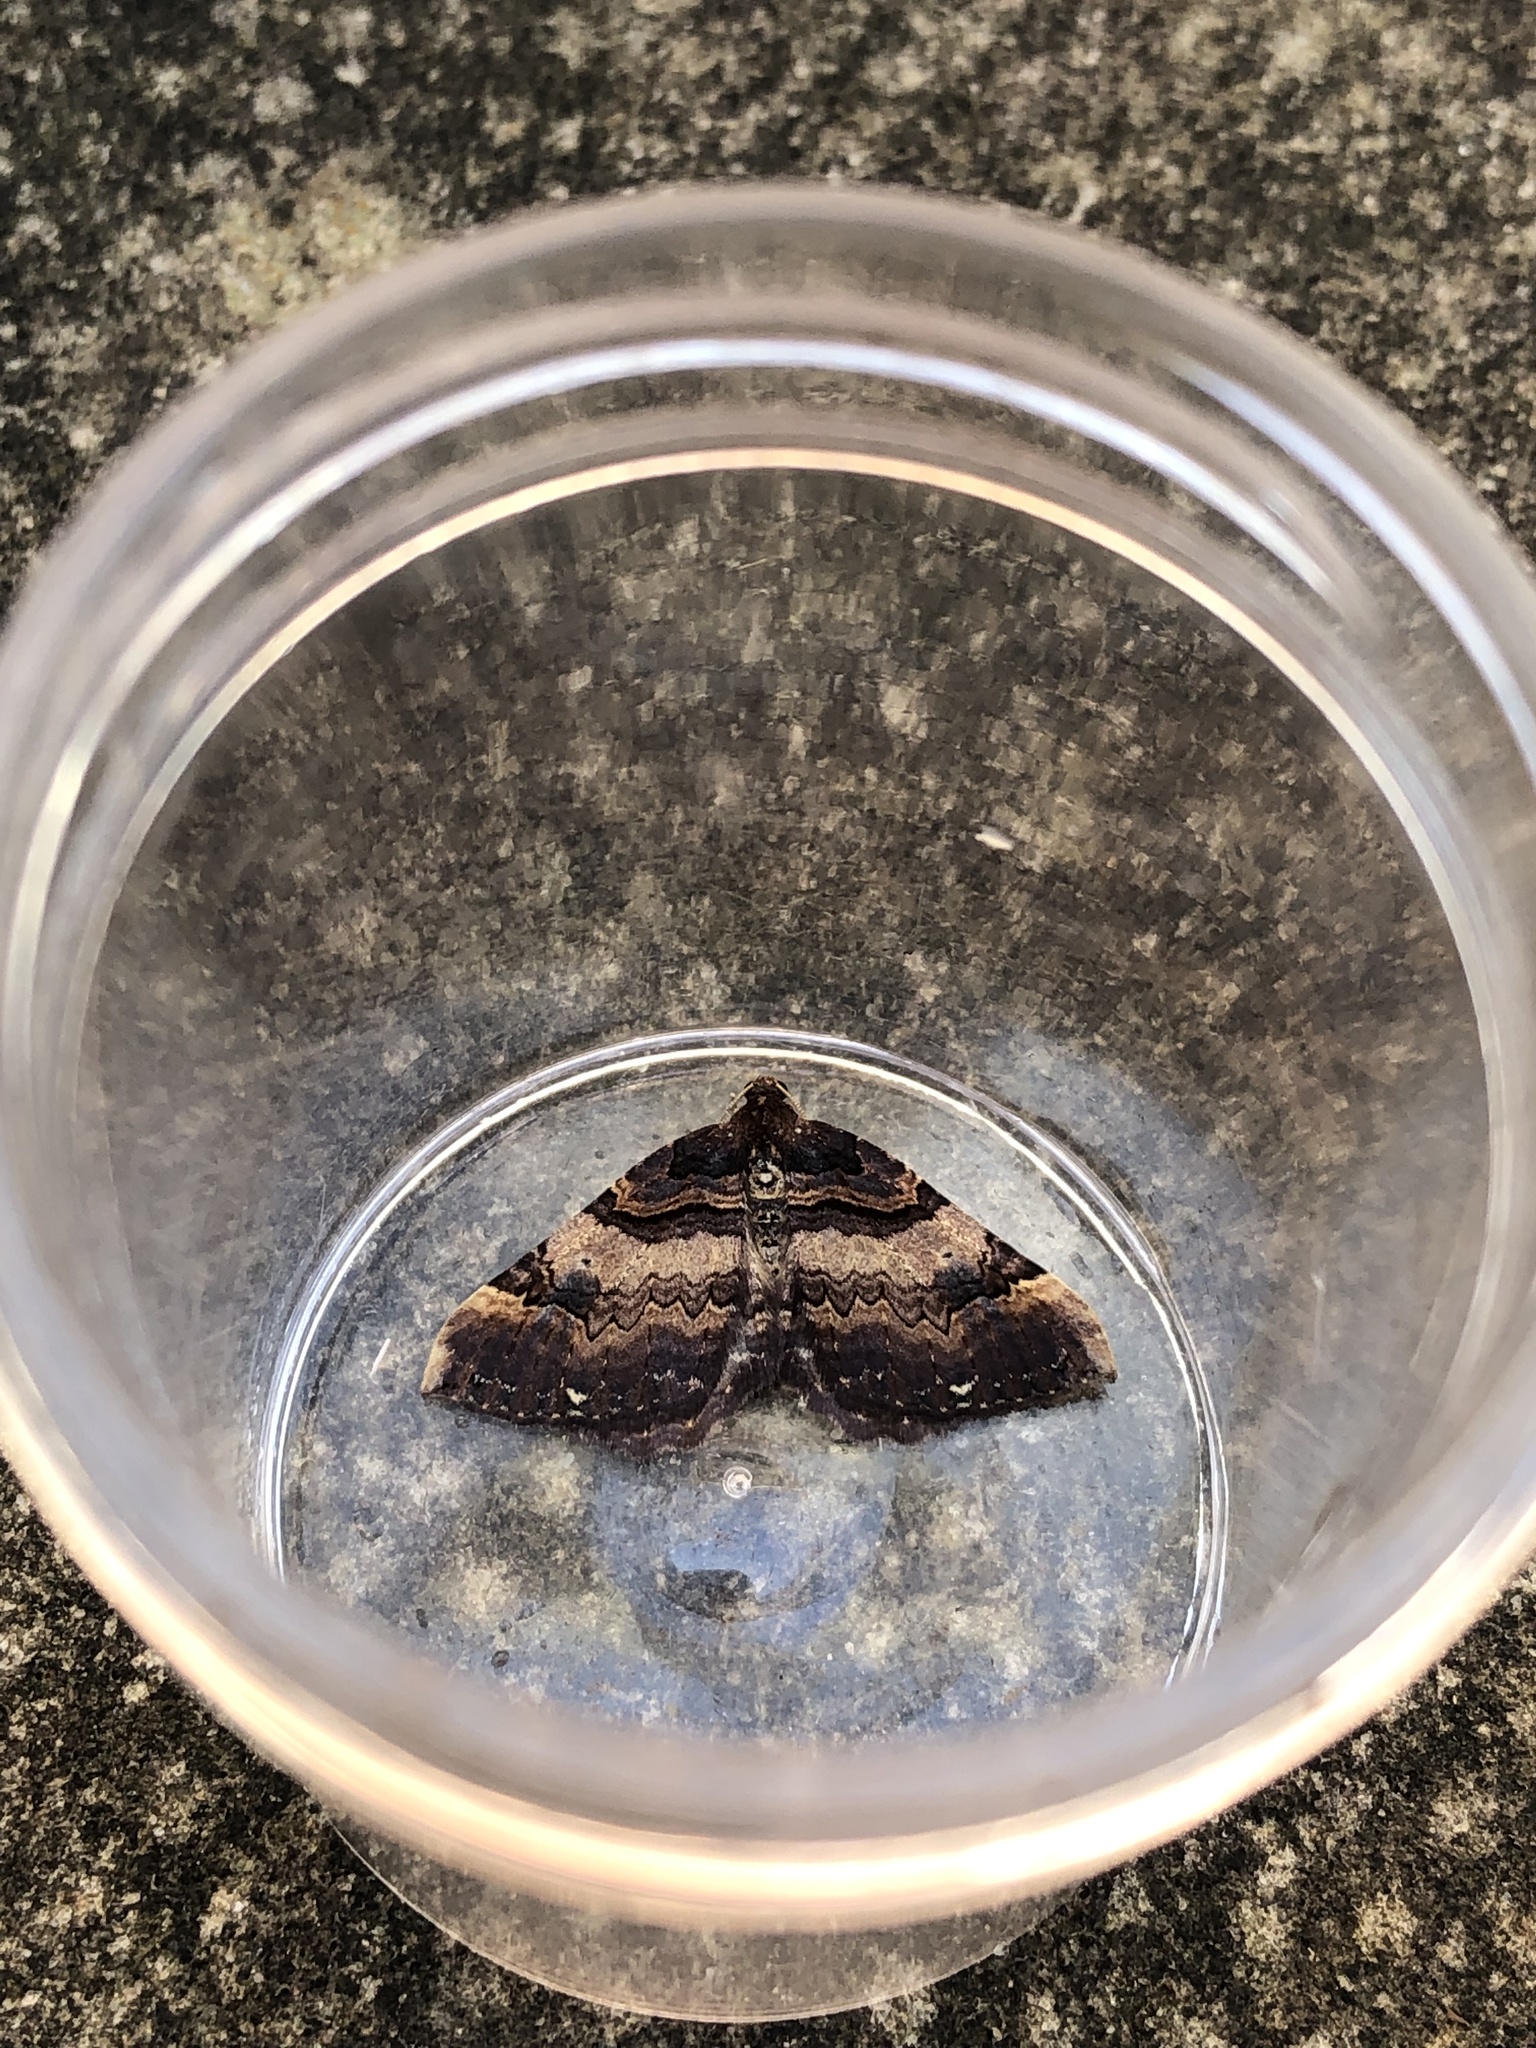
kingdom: Animalia
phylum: Arthropoda
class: Insecta
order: Lepidoptera
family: Geometridae
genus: Anticlea
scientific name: Anticlea badiata
